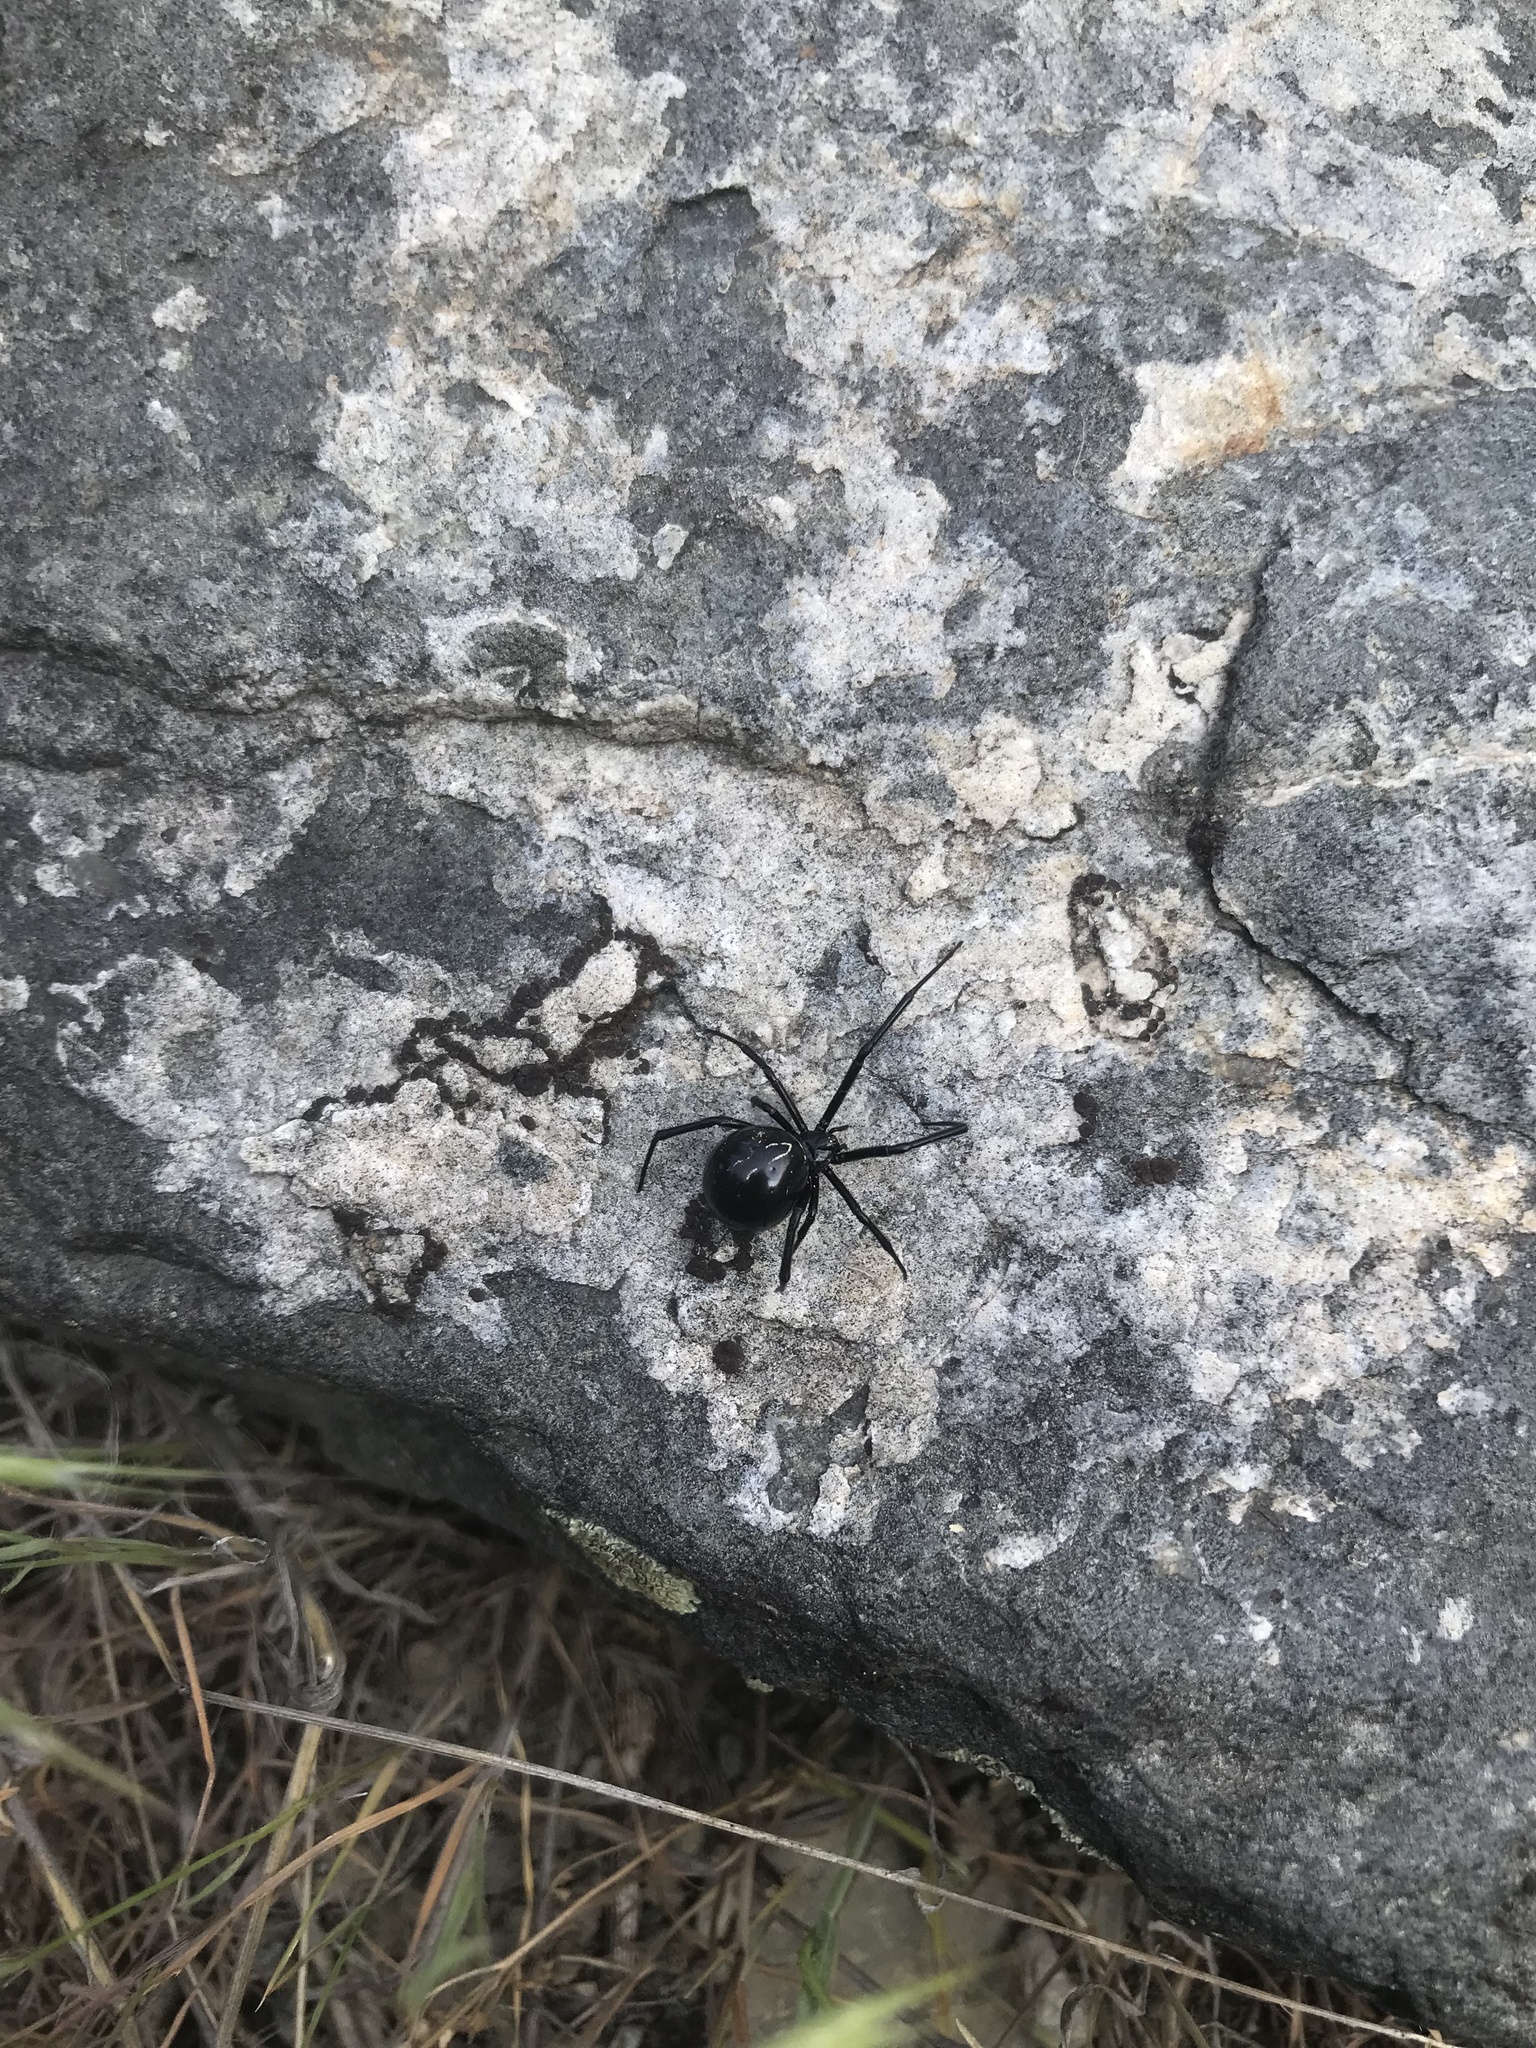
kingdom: Animalia
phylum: Arthropoda
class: Arachnida
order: Araneae
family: Theridiidae
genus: Latrodectus
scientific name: Latrodectus hesperus
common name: Western black widow
